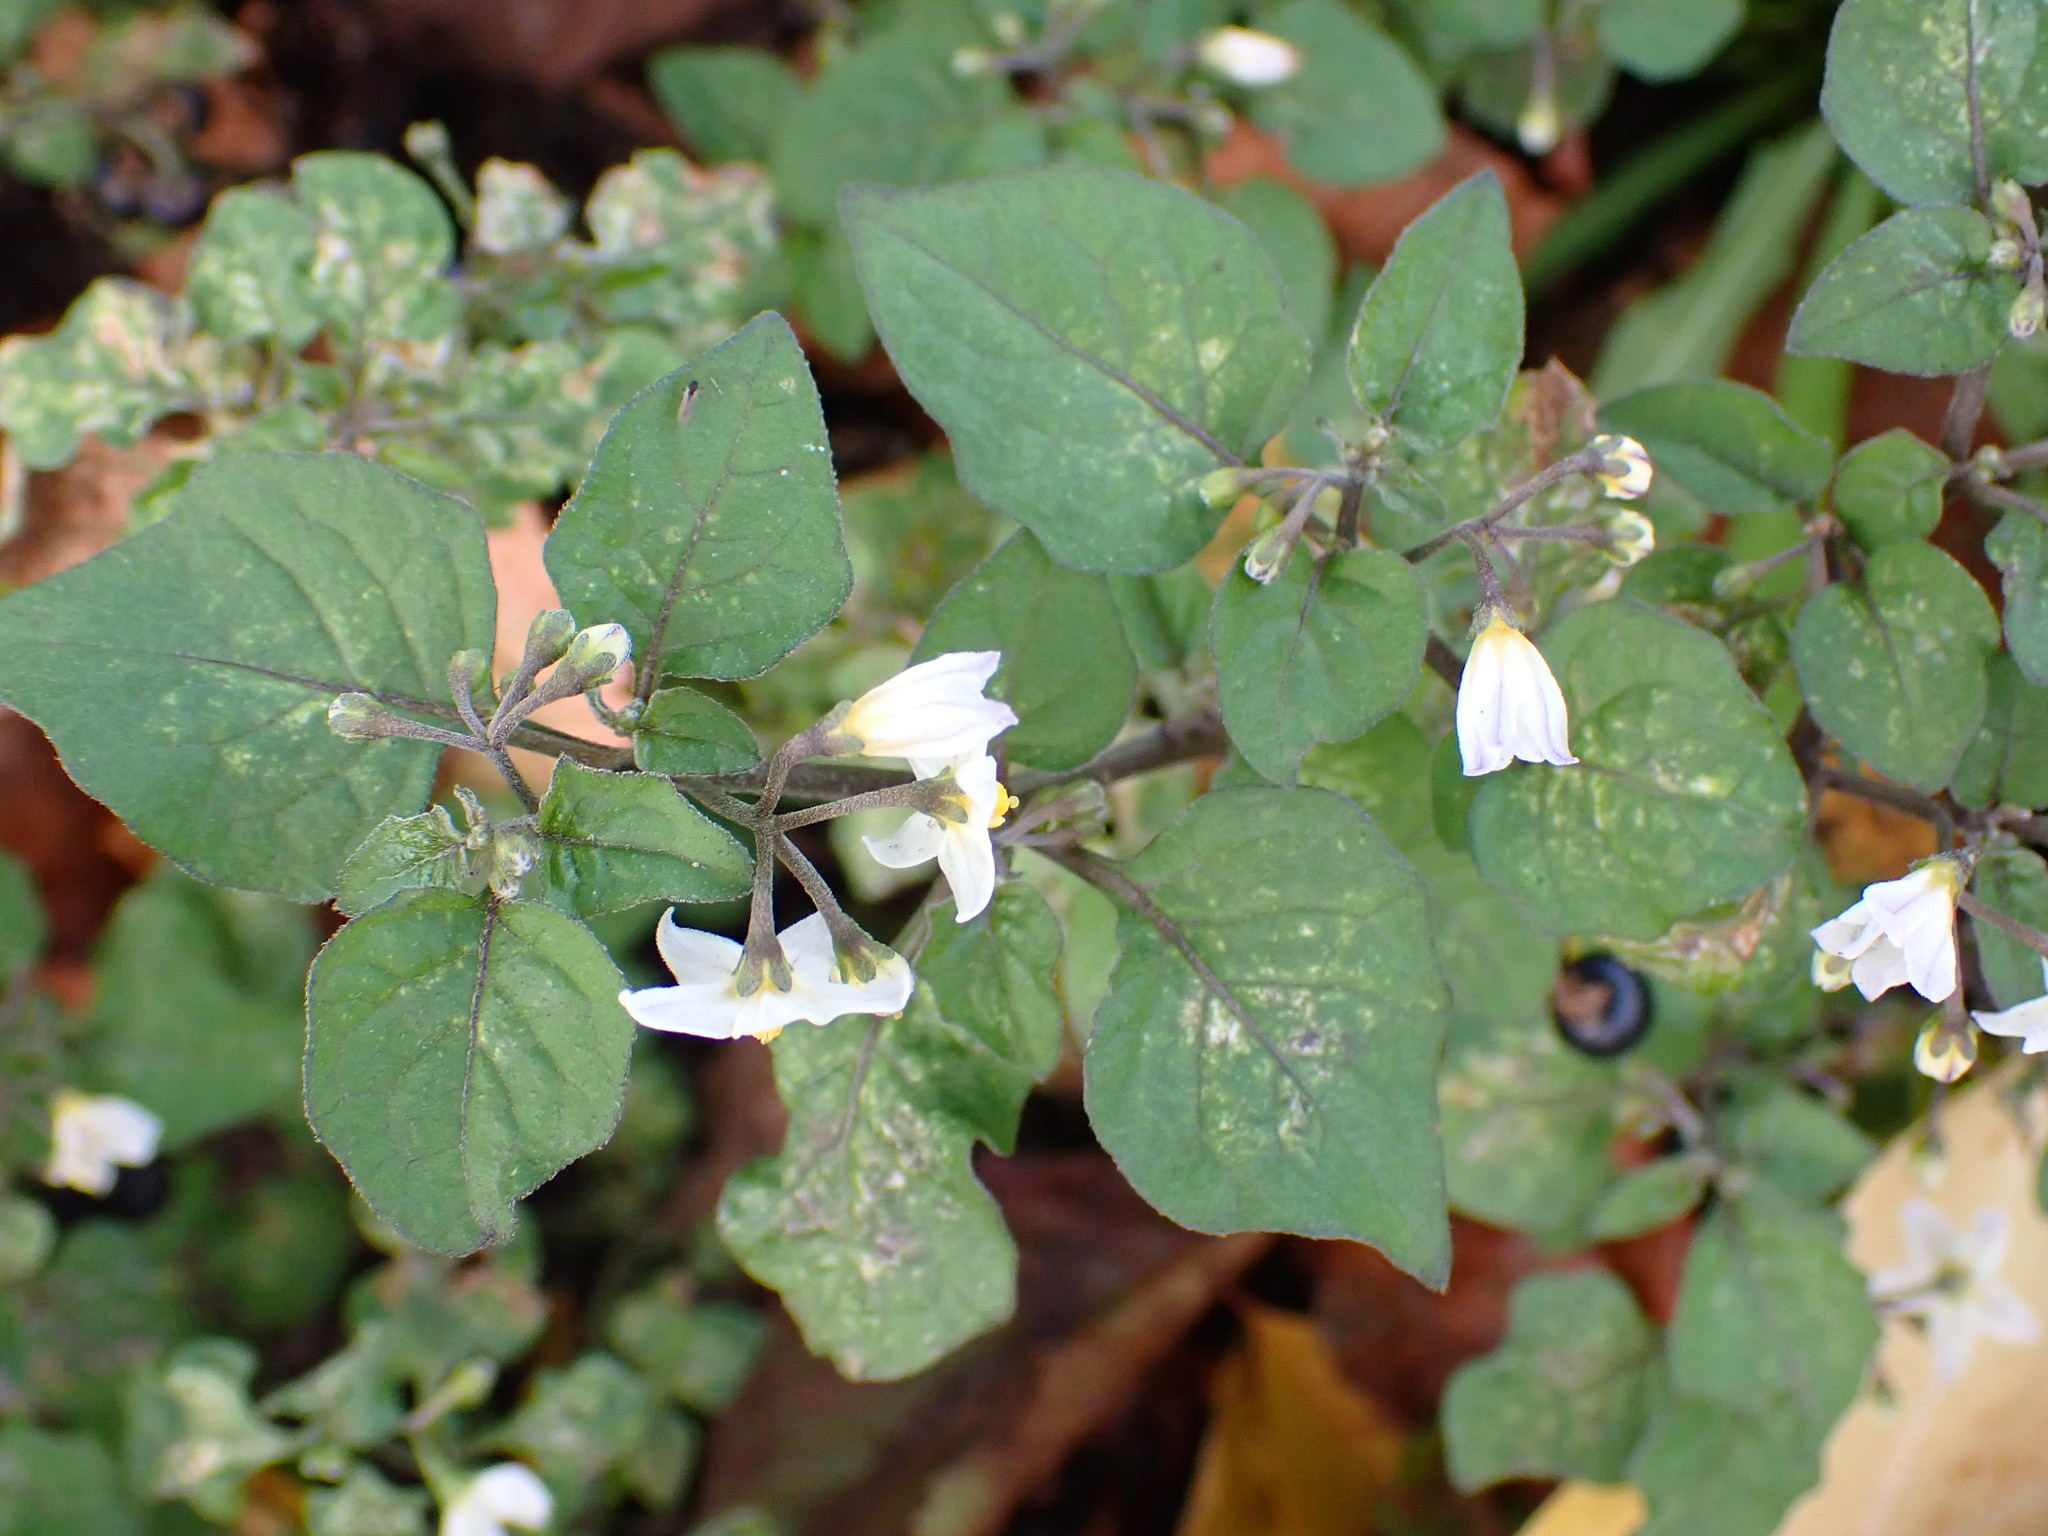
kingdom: Plantae
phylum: Tracheophyta
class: Magnoliopsida
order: Solanales
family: Solanaceae
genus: Solanum
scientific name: Solanum nigrum
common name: Black nightshade
